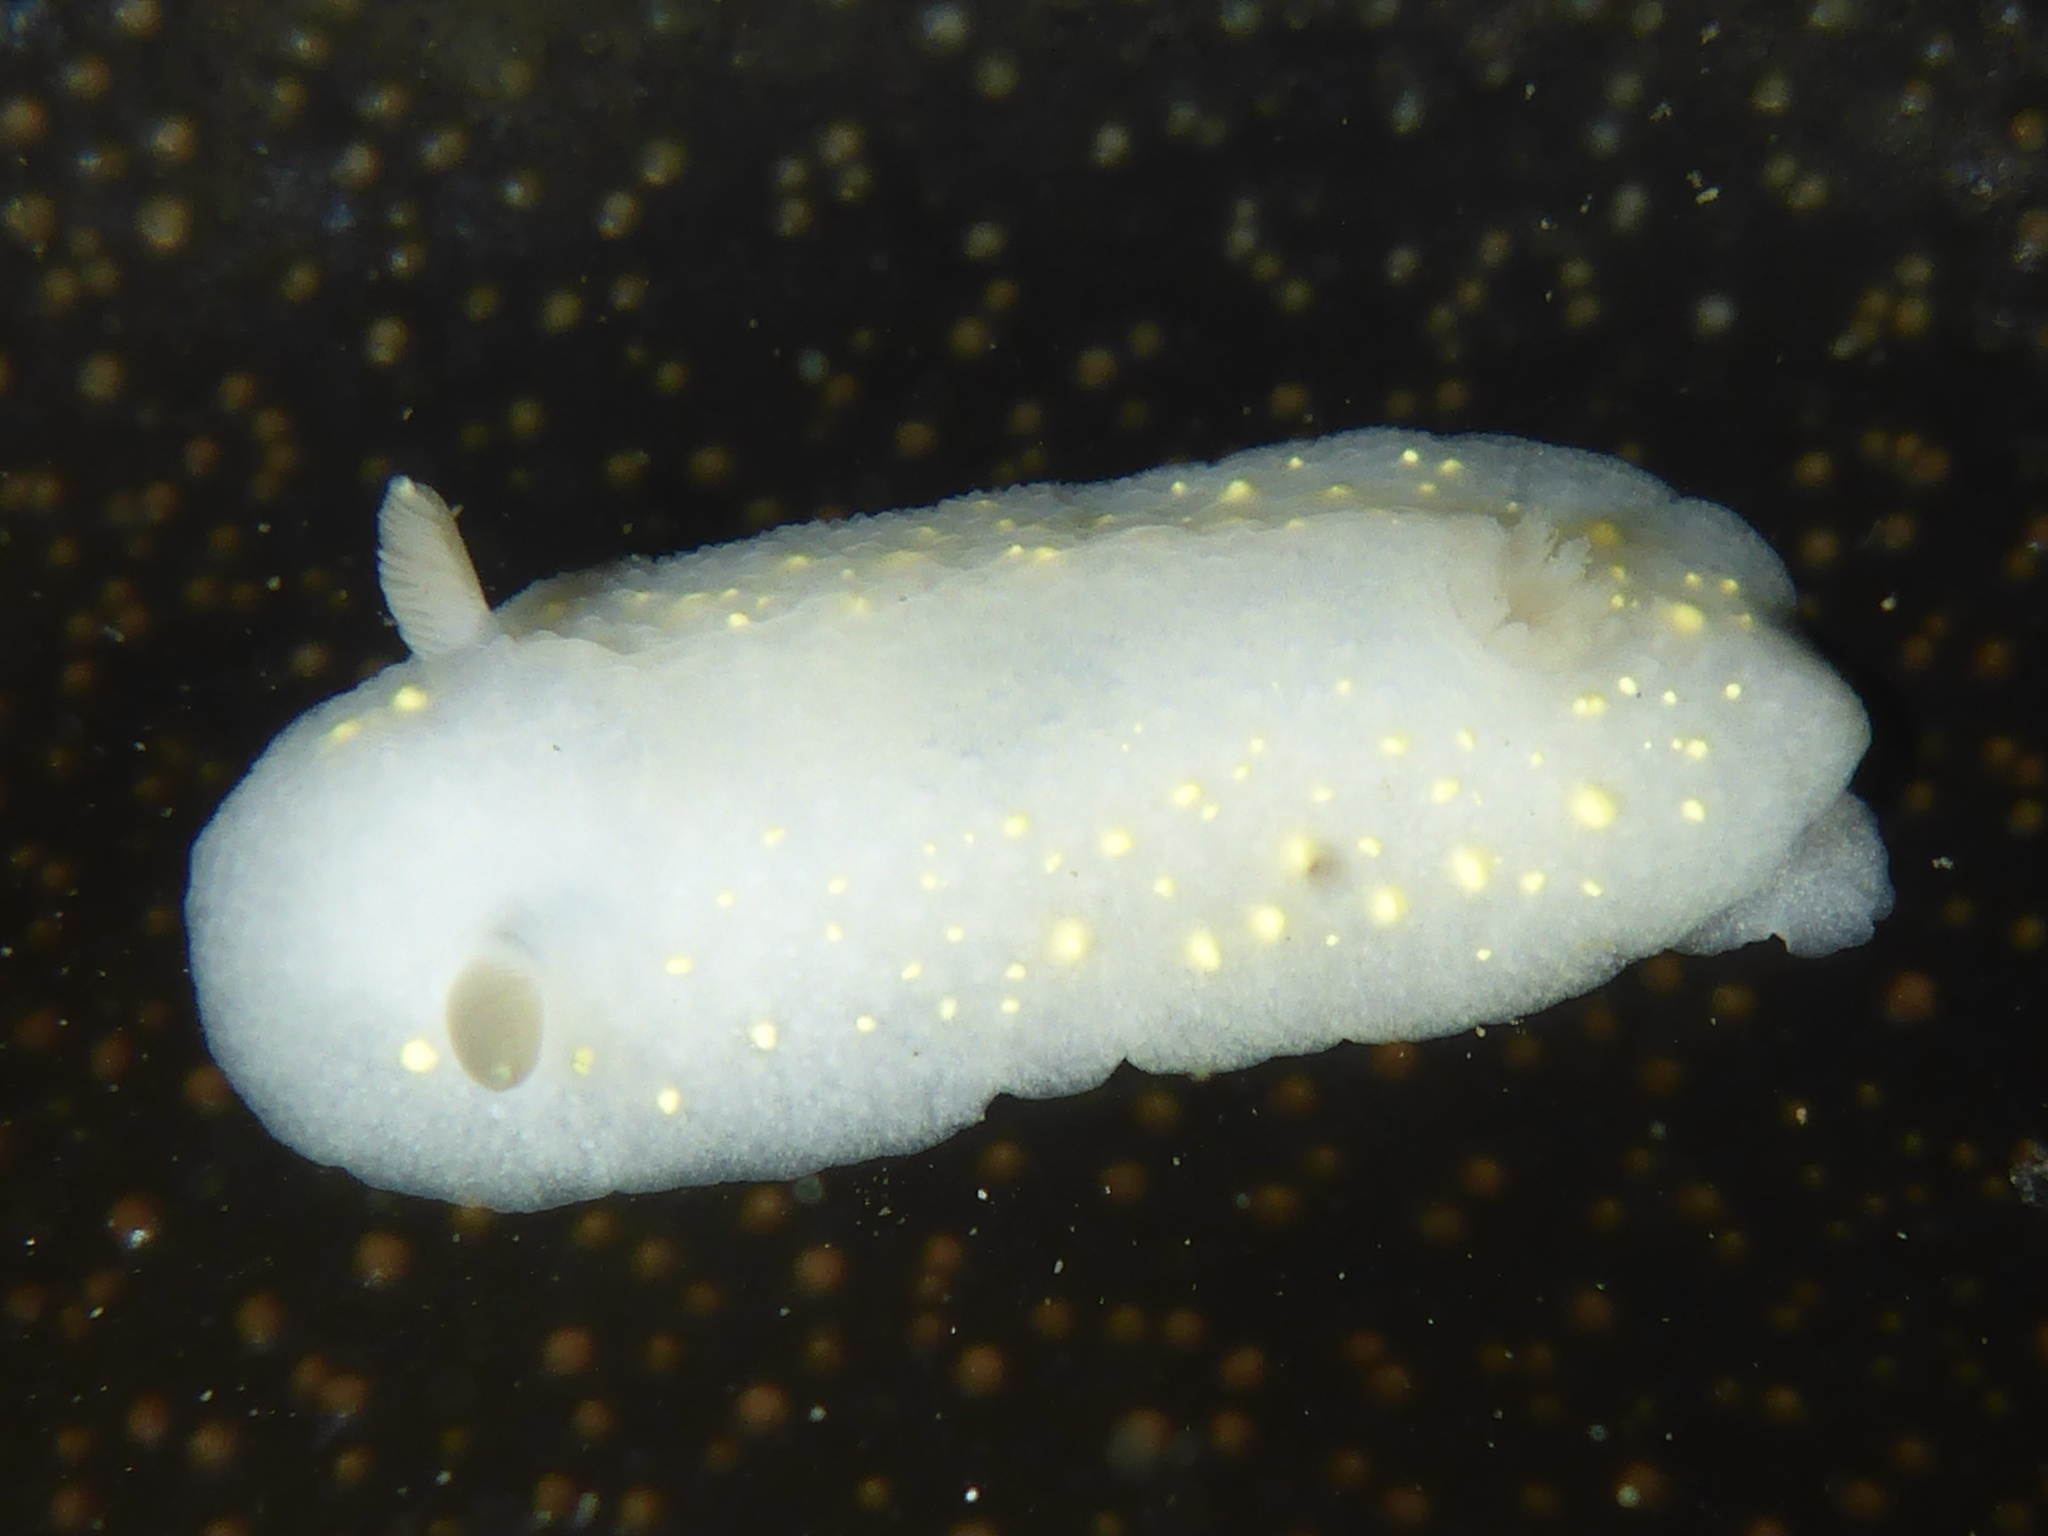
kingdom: Animalia
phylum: Mollusca
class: Gastropoda
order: Nudibranchia
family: Cadlinidae
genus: Cadlina
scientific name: Cadlina modesta
